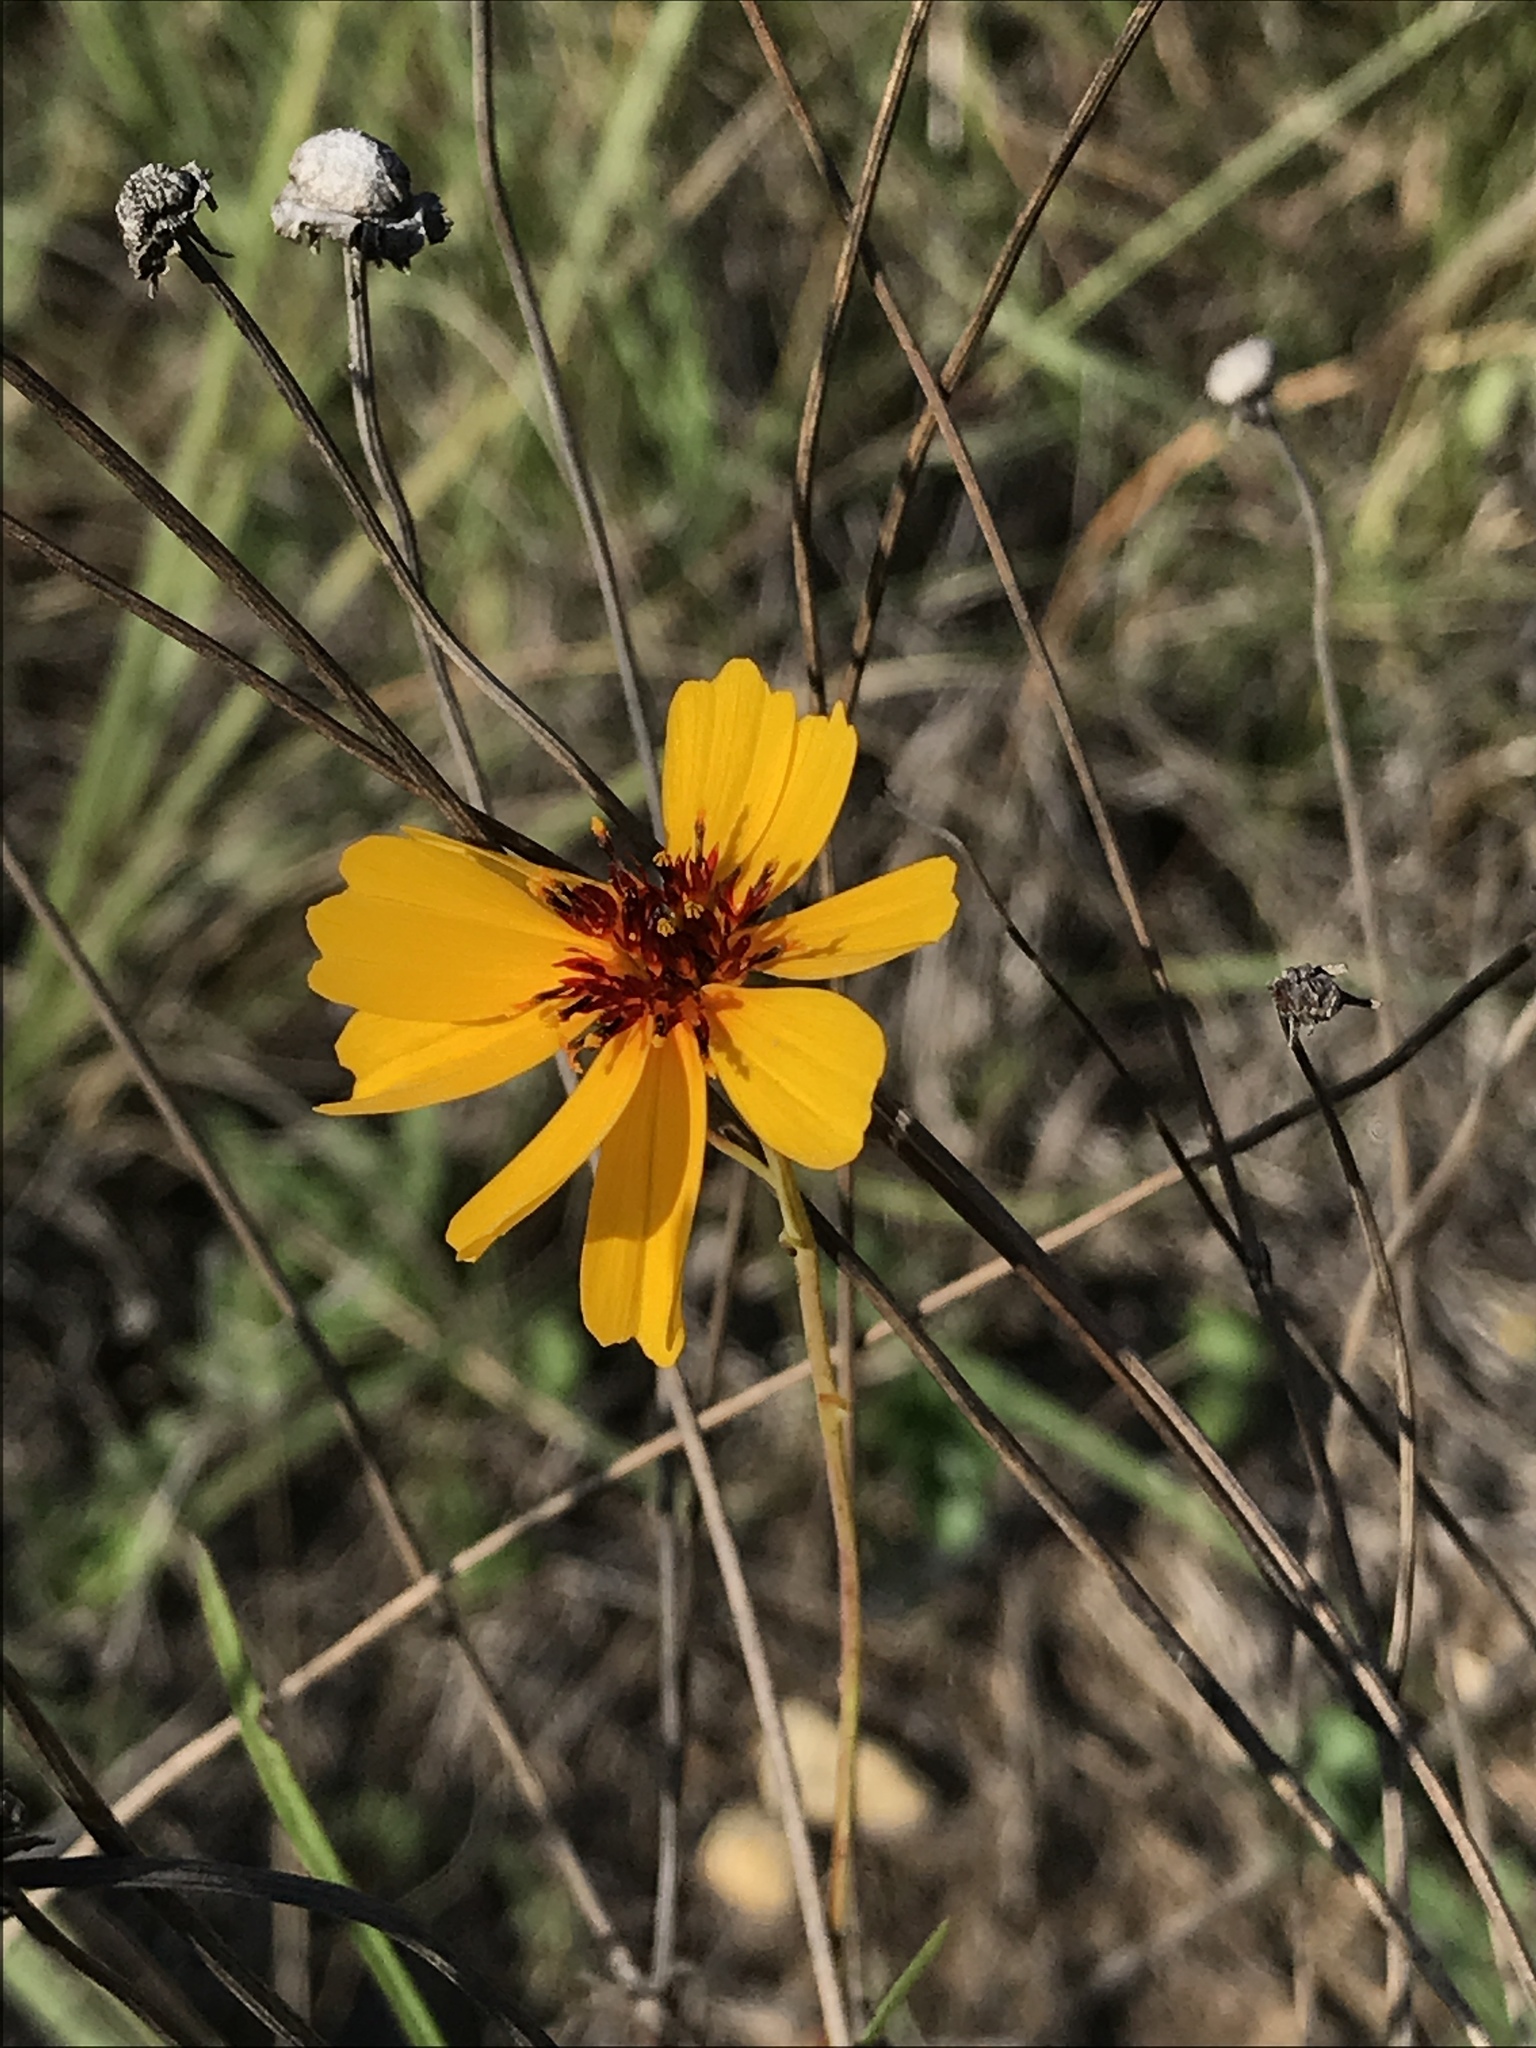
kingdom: Plantae
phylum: Tracheophyta
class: Magnoliopsida
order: Asterales
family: Asteraceae
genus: Thelesperma
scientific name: Thelesperma filifolium
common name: Stiff greenthread
